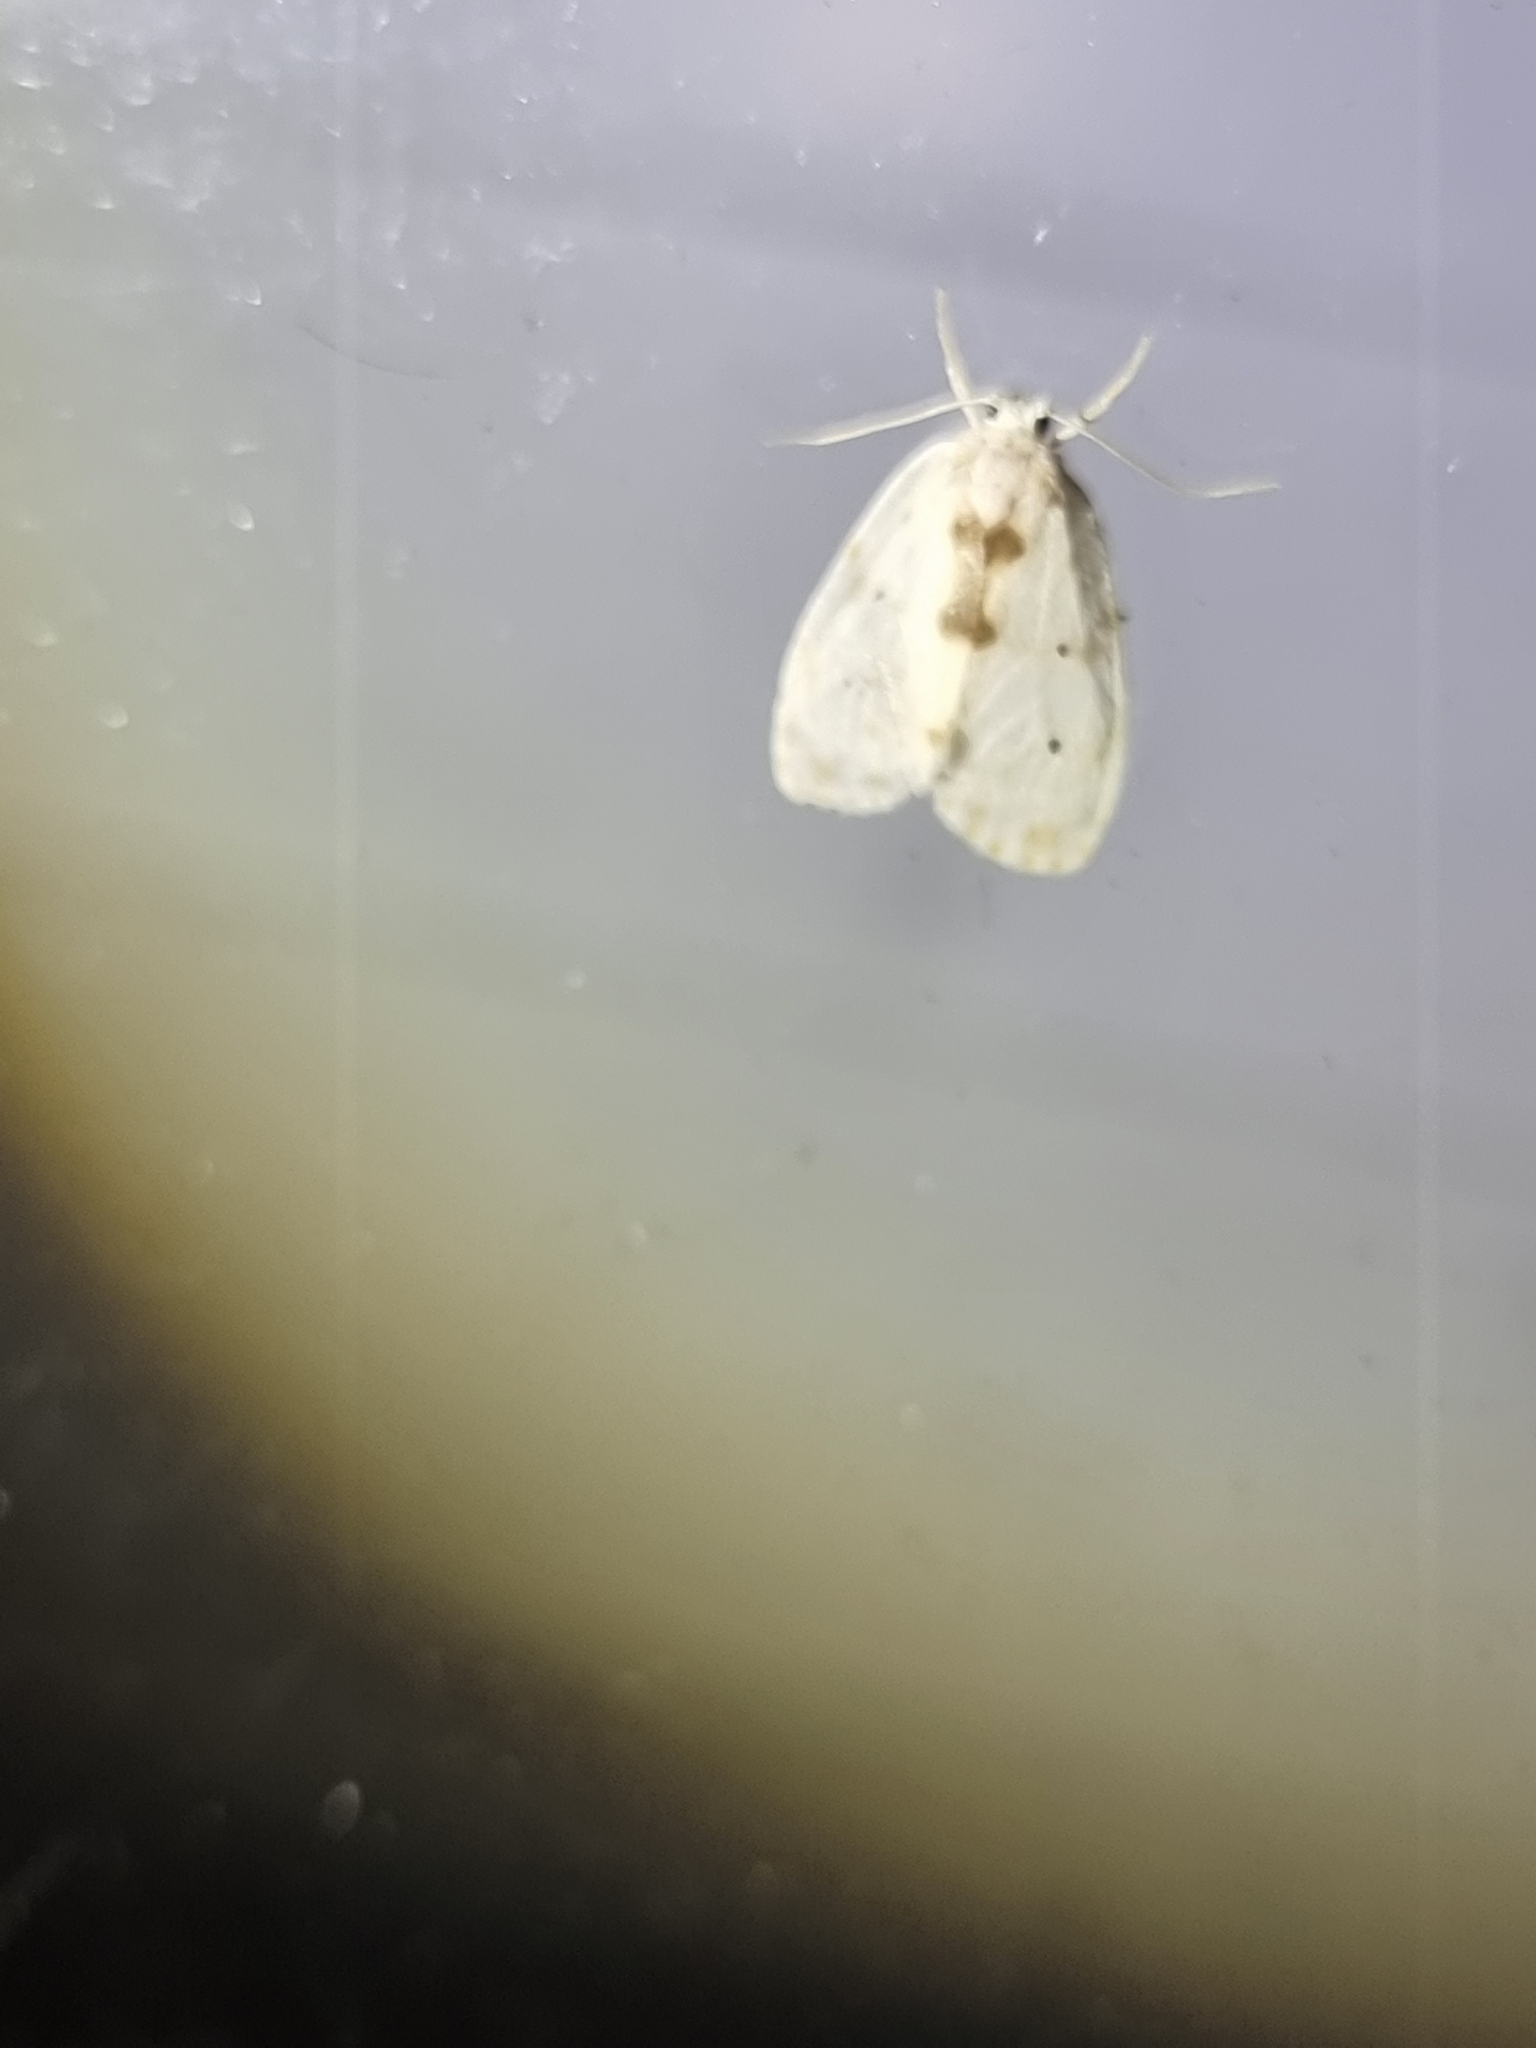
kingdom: Animalia
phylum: Arthropoda
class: Insecta
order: Lepidoptera
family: Erebidae
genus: Schistophleps
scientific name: Schistophleps albida
